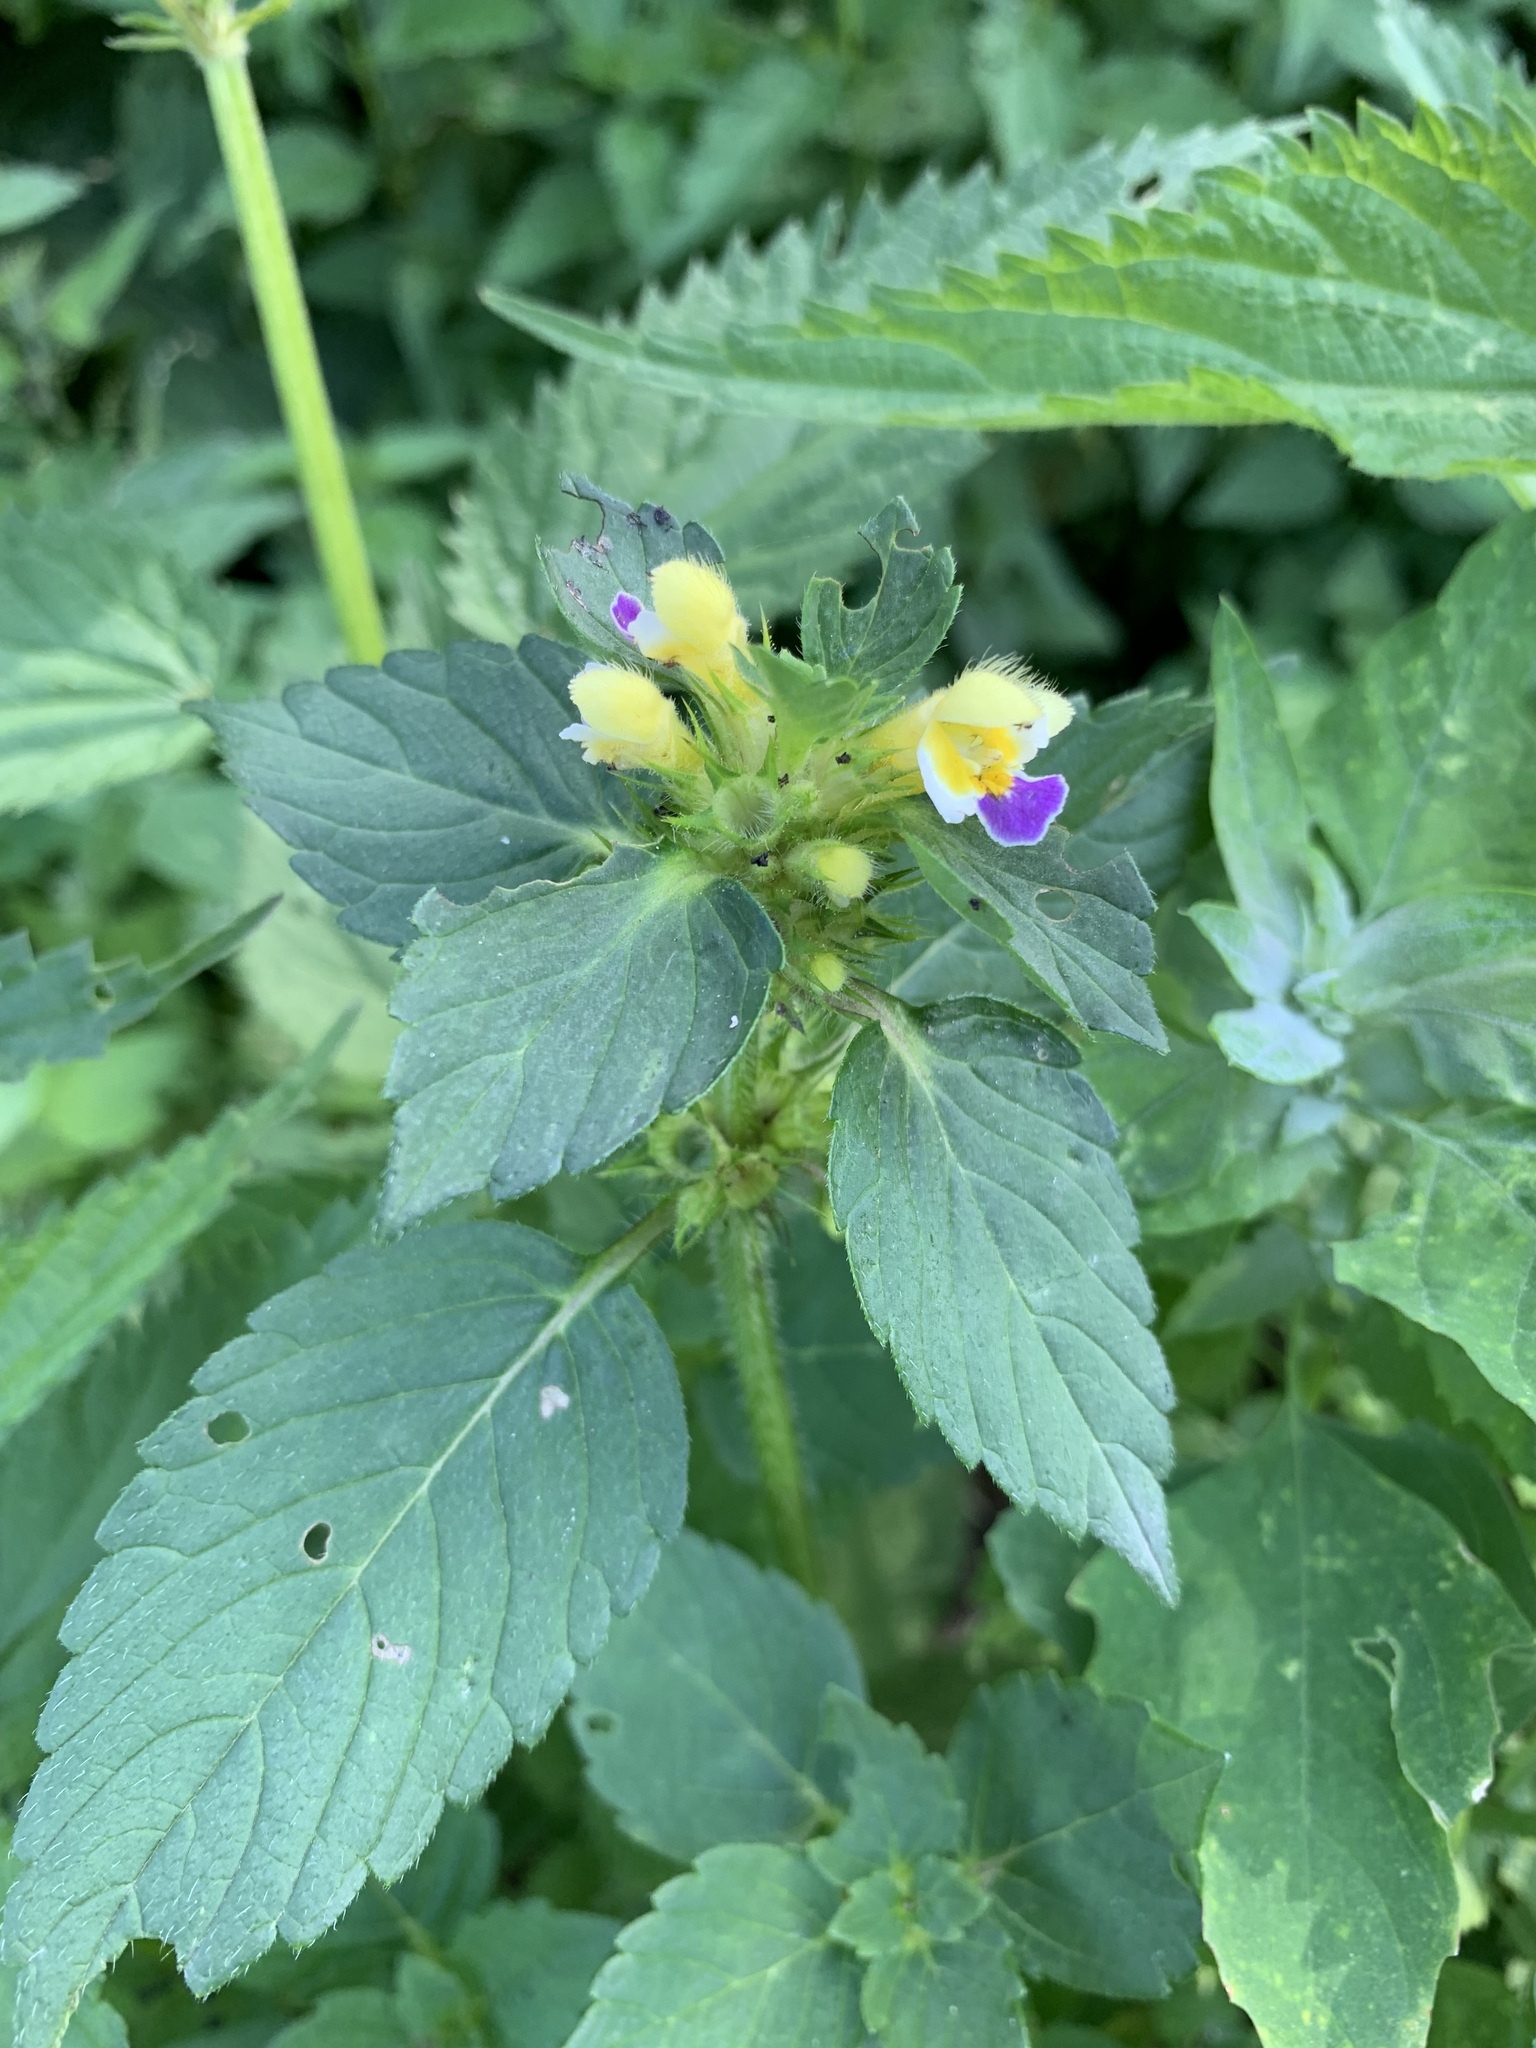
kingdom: Plantae
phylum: Tracheophyta
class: Magnoliopsida
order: Lamiales
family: Lamiaceae
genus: Galeopsis
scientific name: Galeopsis speciosa
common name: Large-flowered hemp-nettle
